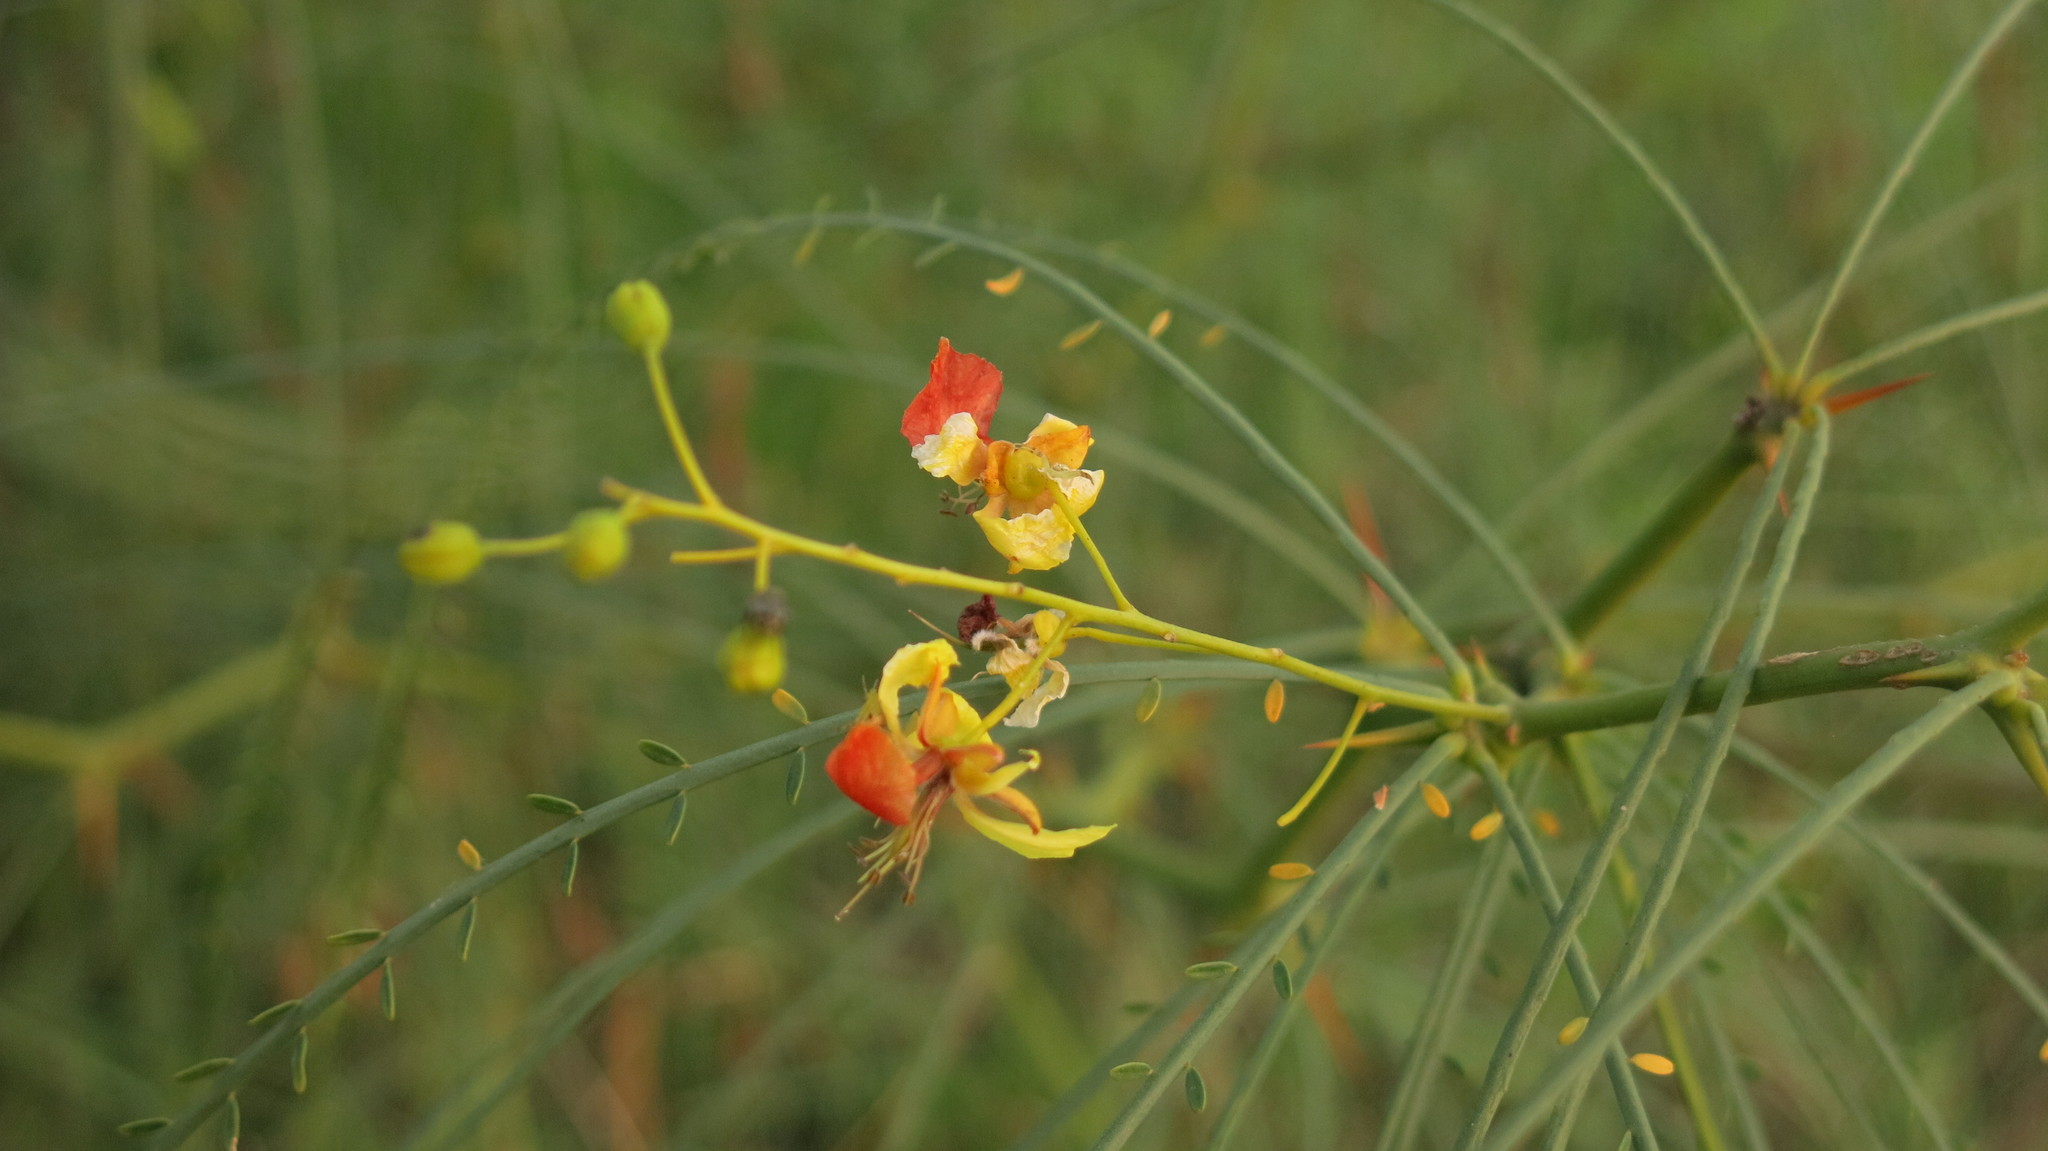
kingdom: Plantae
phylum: Tracheophyta
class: Magnoliopsida
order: Fabales
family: Fabaceae
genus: Parkinsonia
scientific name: Parkinsonia aculeata
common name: Jerusalem thorn
